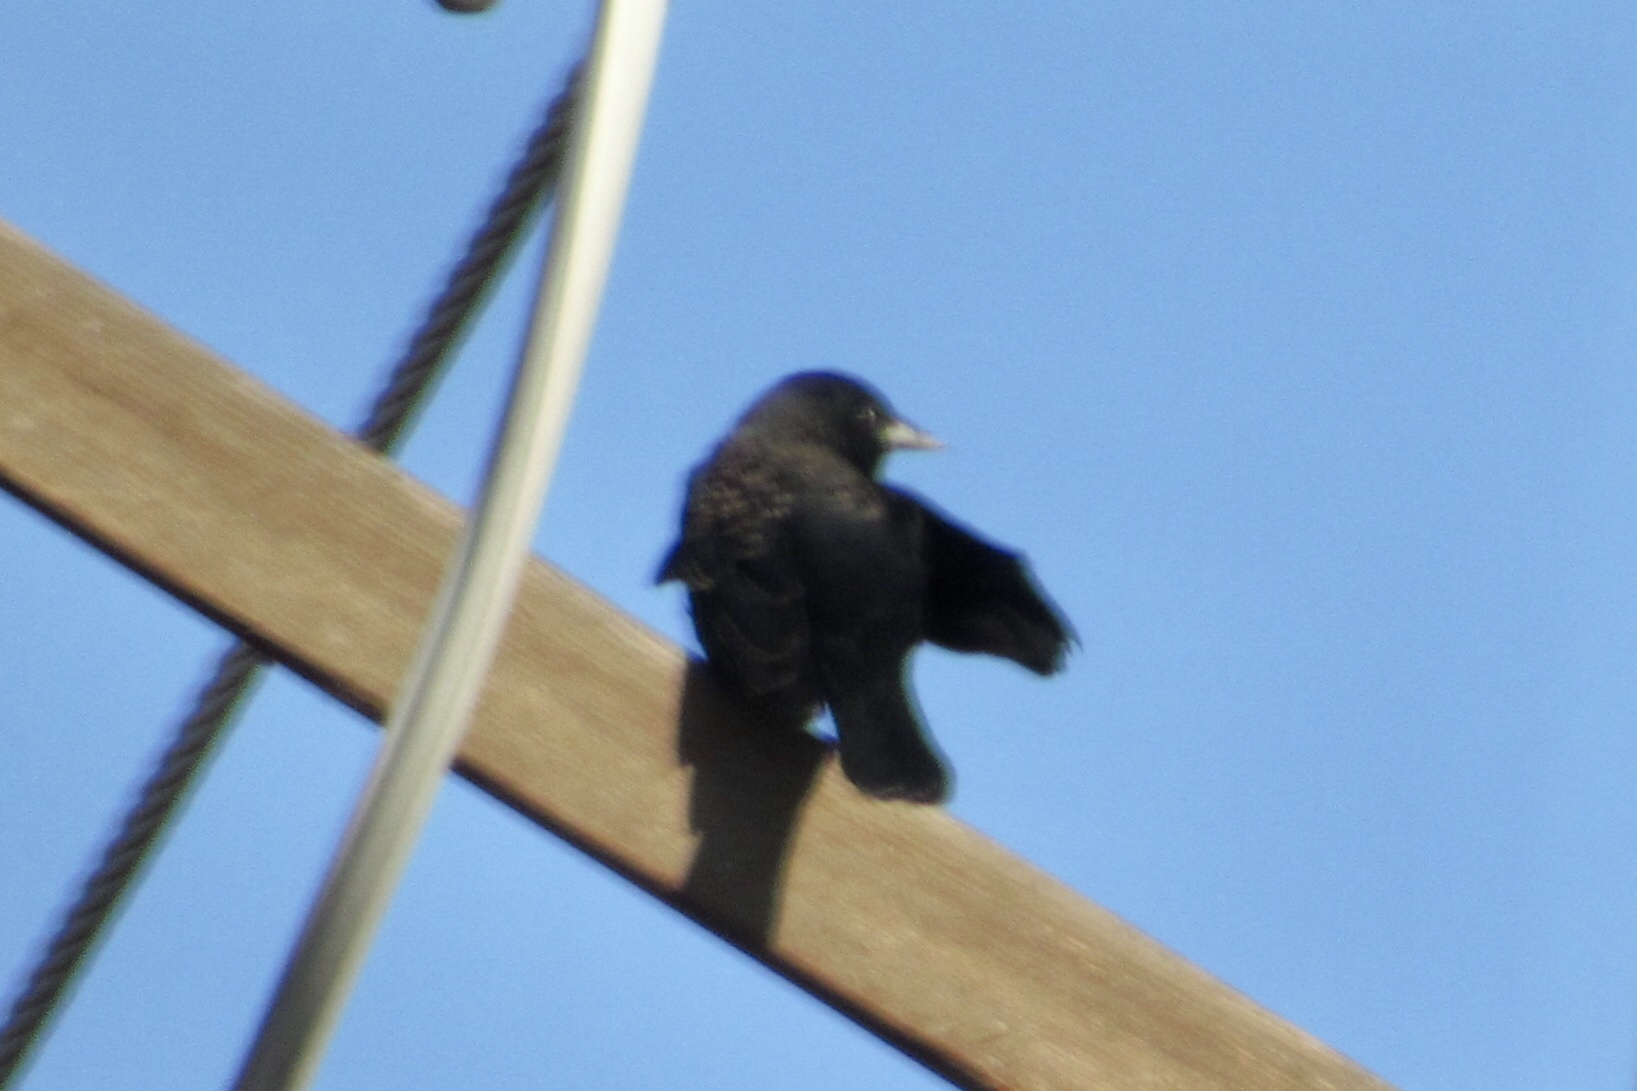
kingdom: Animalia
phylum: Chordata
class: Aves
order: Passeriformes
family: Icteridae
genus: Agelaius
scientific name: Agelaius phoeniceus
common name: Red-winged blackbird
